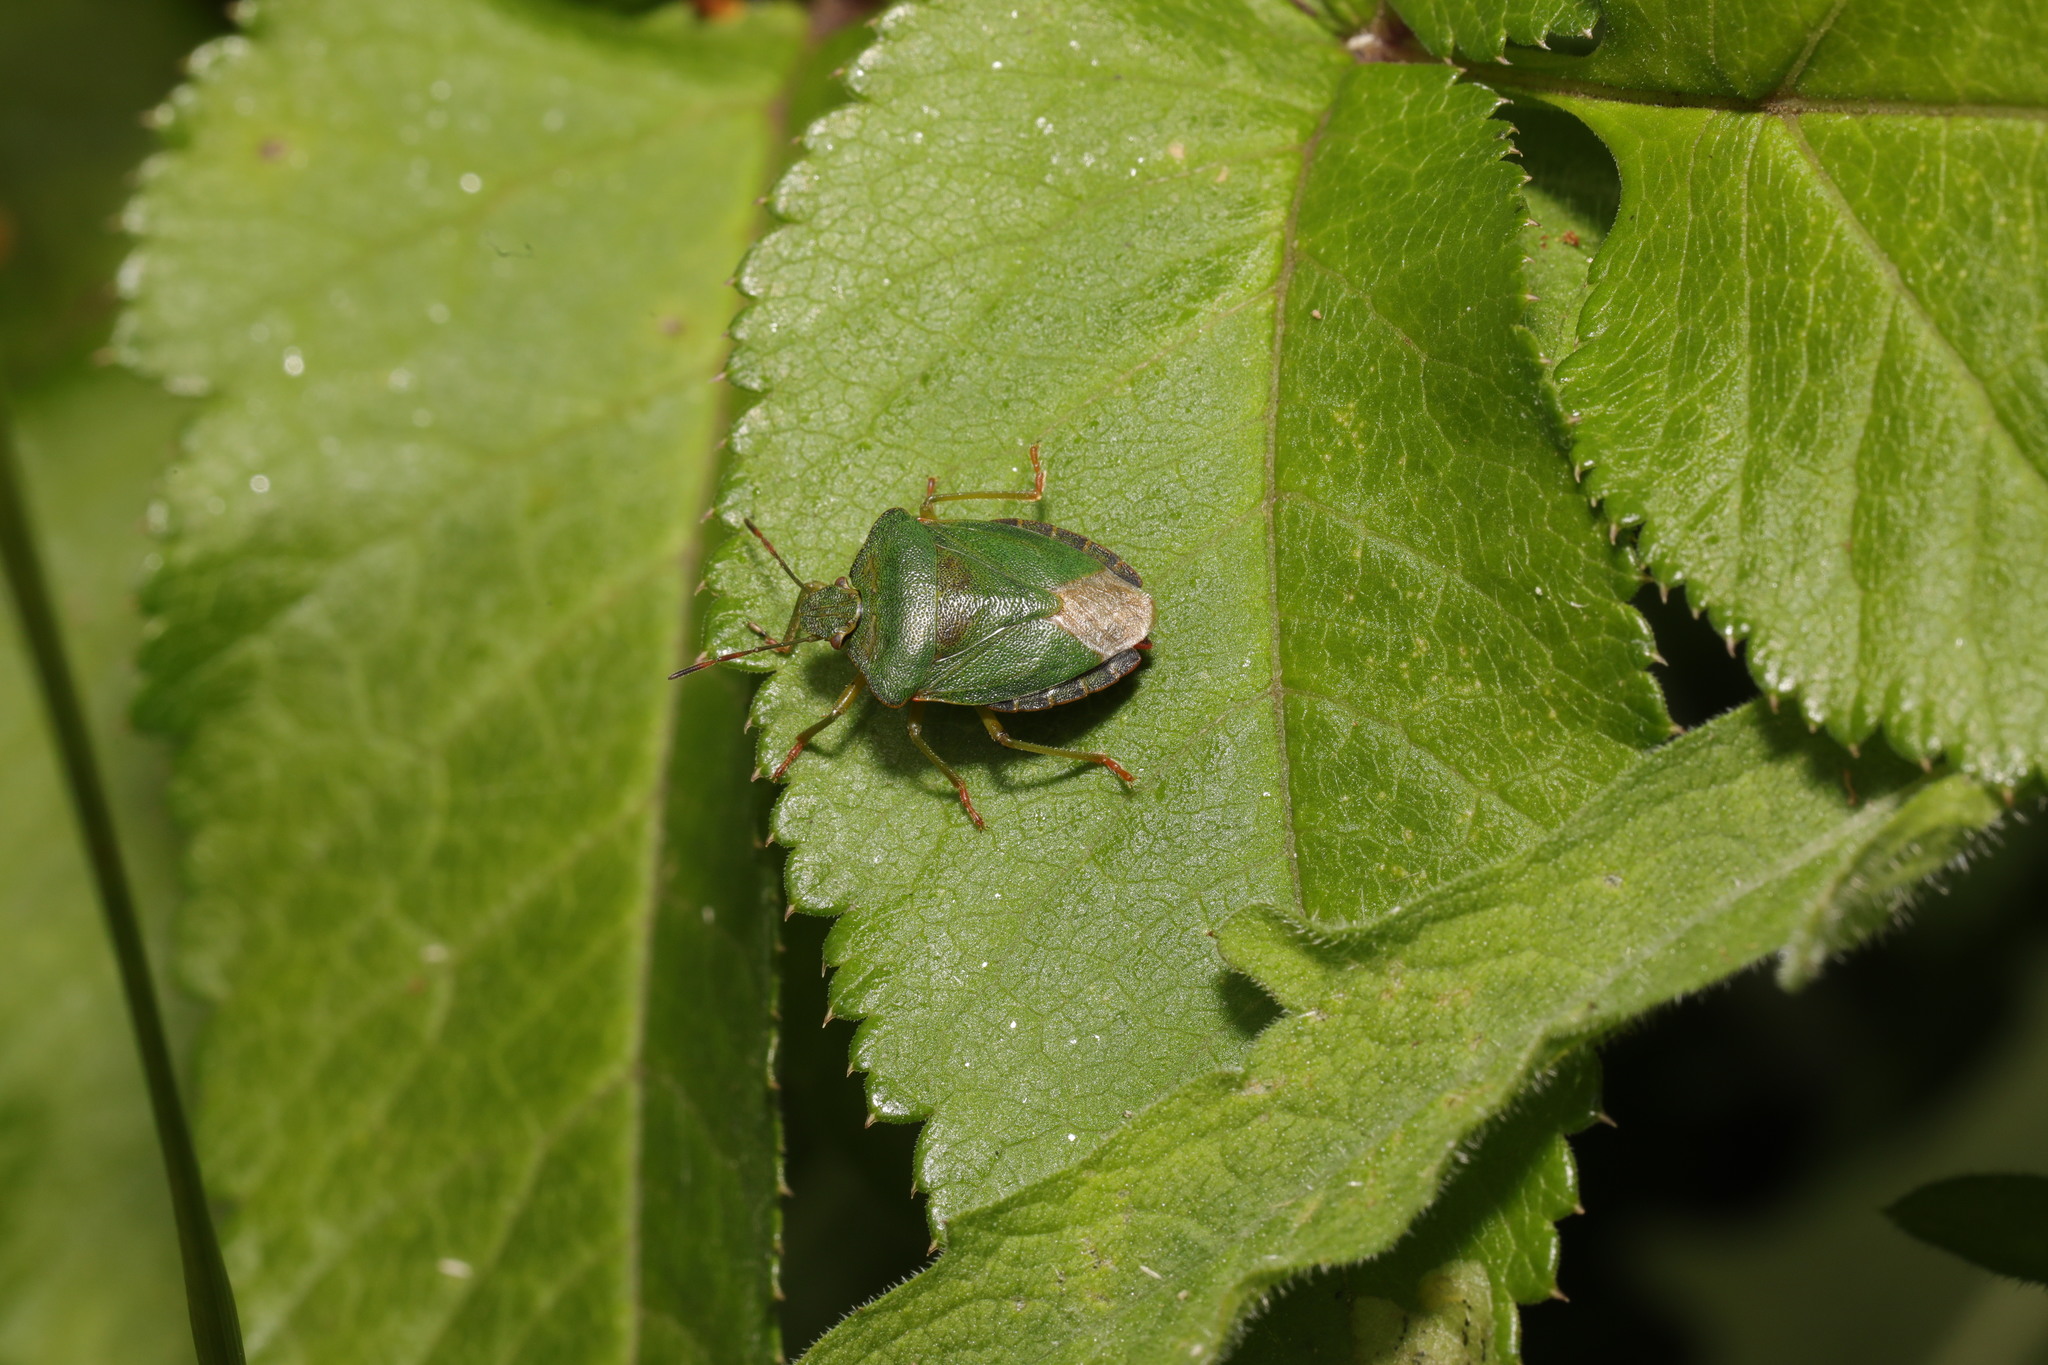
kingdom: Animalia
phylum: Arthropoda
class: Insecta
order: Hemiptera
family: Pentatomidae
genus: Palomena
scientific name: Palomena prasina
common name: Green shieldbug
